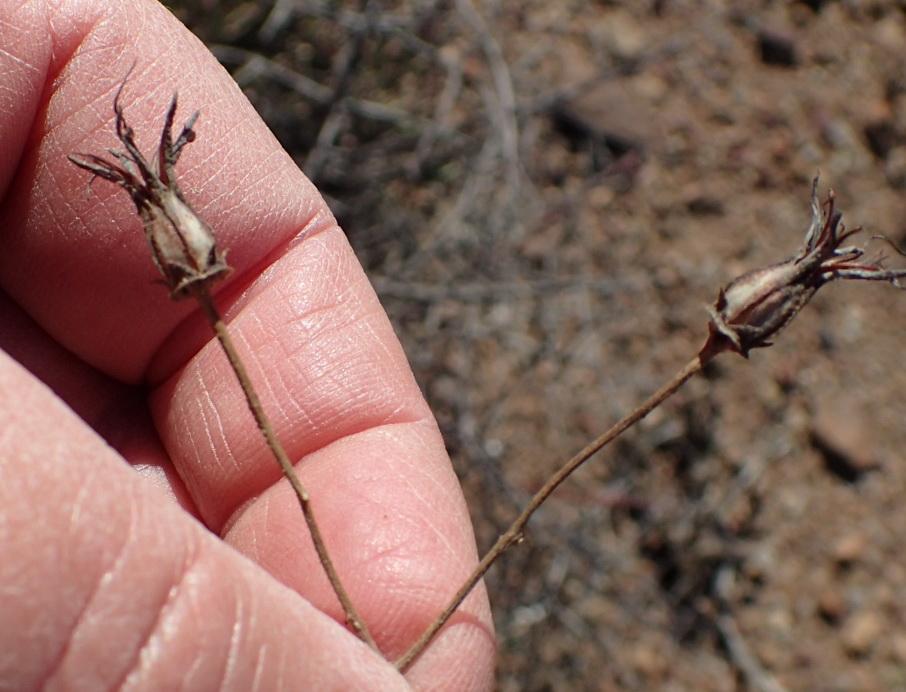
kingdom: Plantae
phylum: Tracheophyta
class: Magnoliopsida
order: Saxifragales
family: Crassulaceae
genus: Cotyledon
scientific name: Cotyledon papillaris
